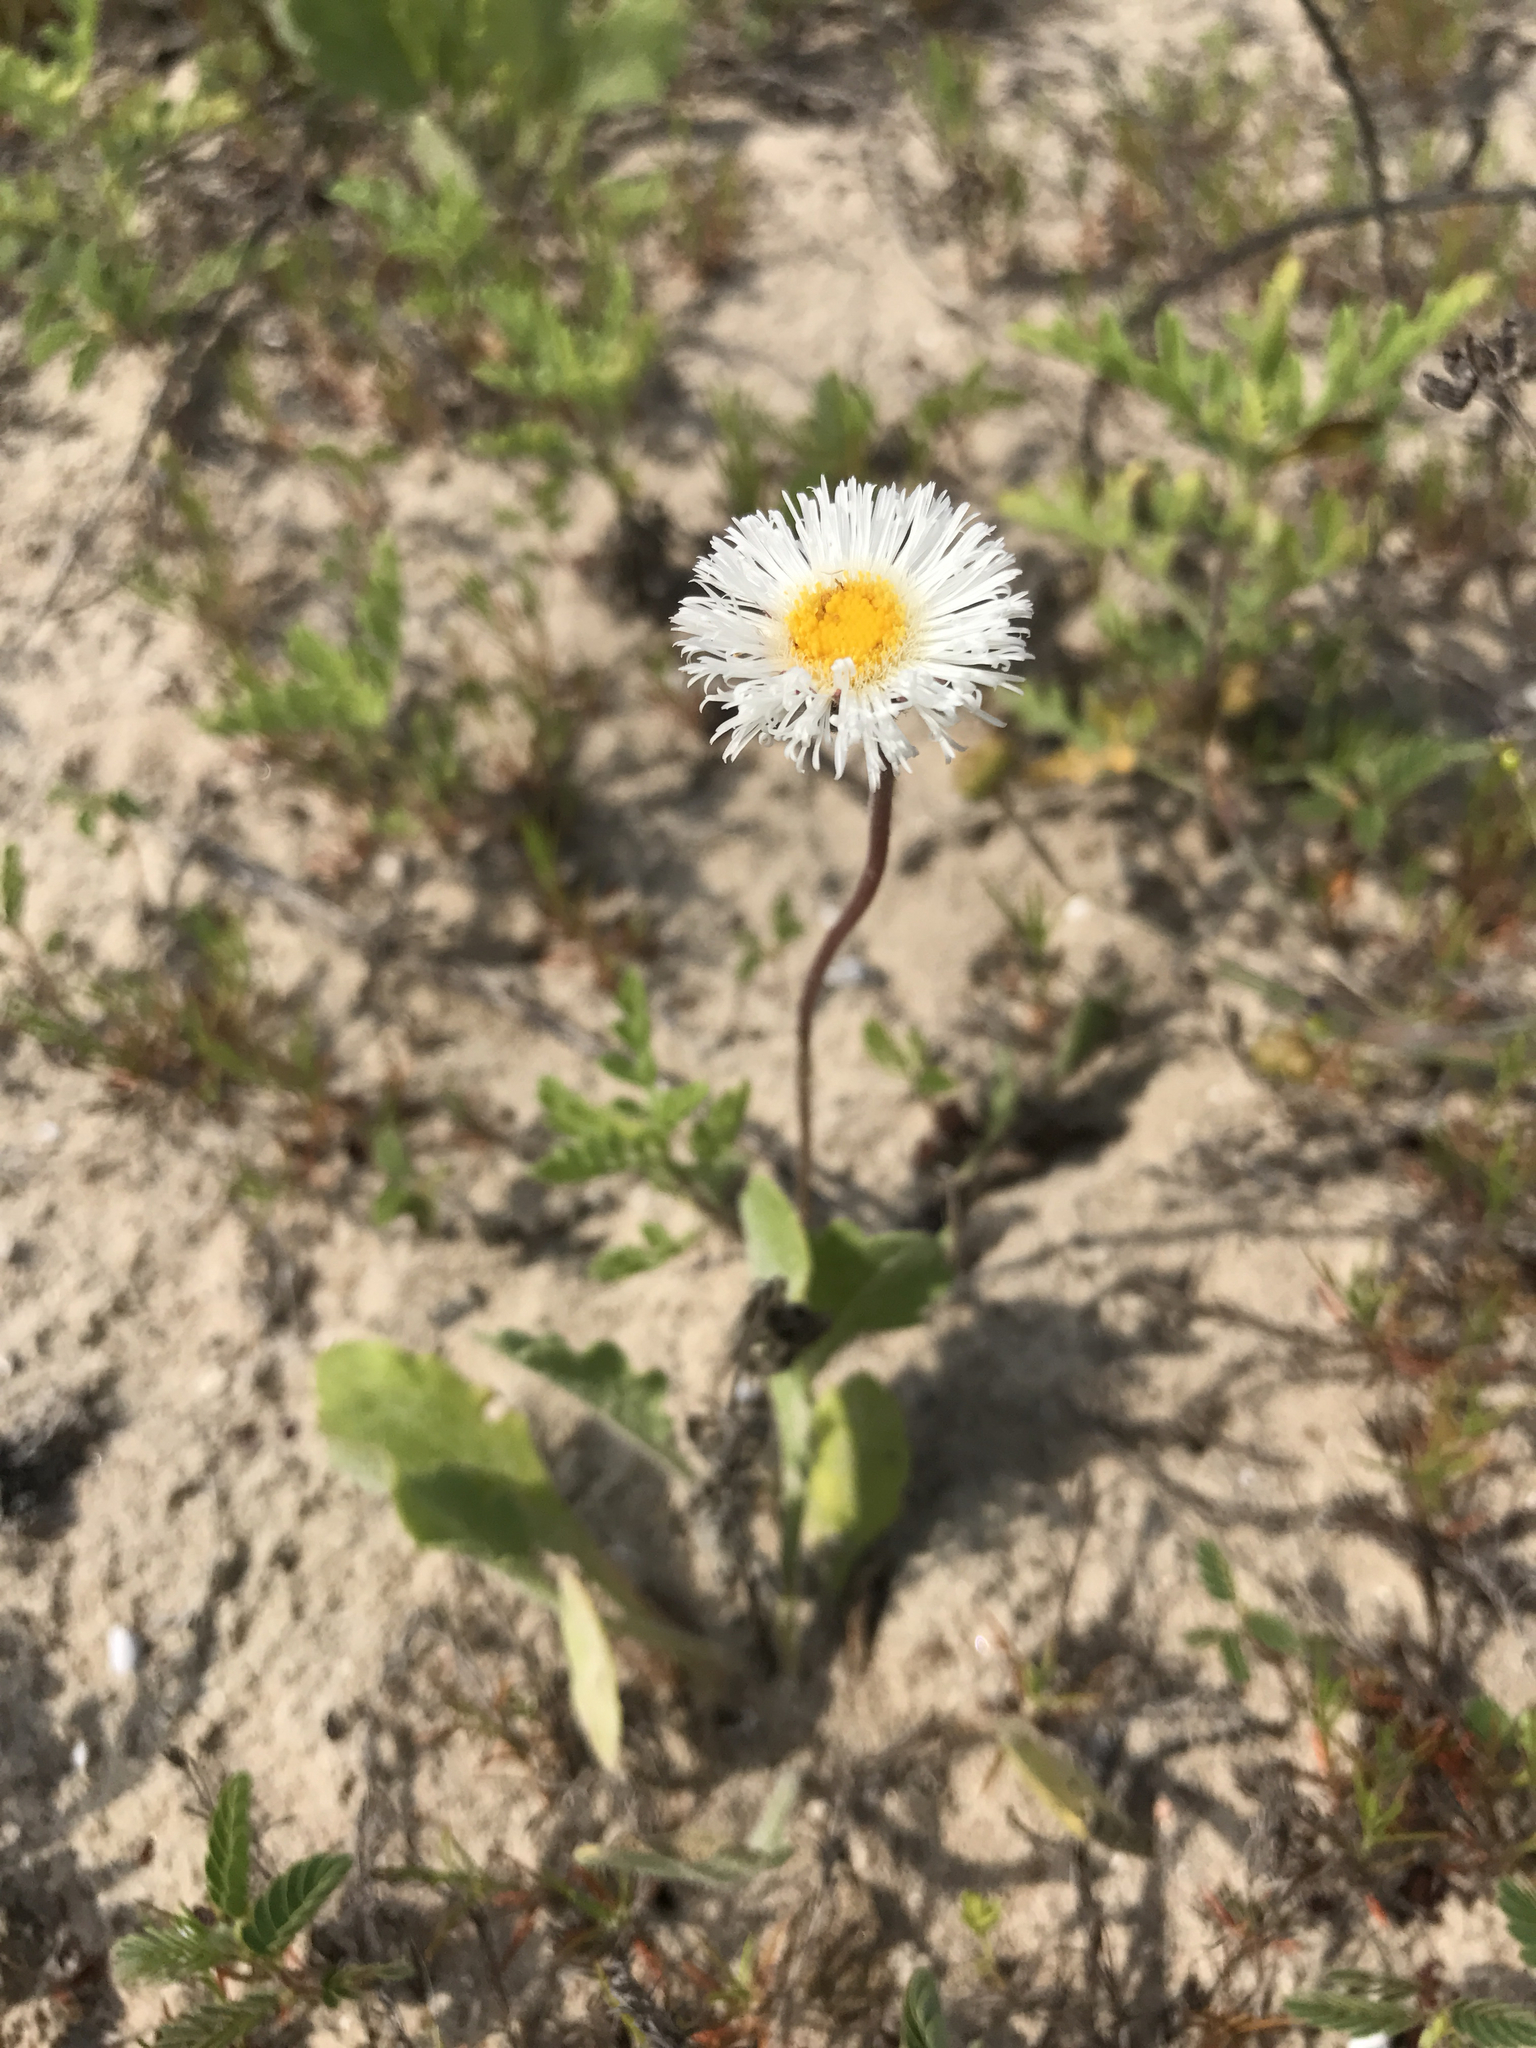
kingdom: Plantae
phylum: Tracheophyta
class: Magnoliopsida
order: Asterales
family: Asteraceae
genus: Erigeron
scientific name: Erigeron procumbens
